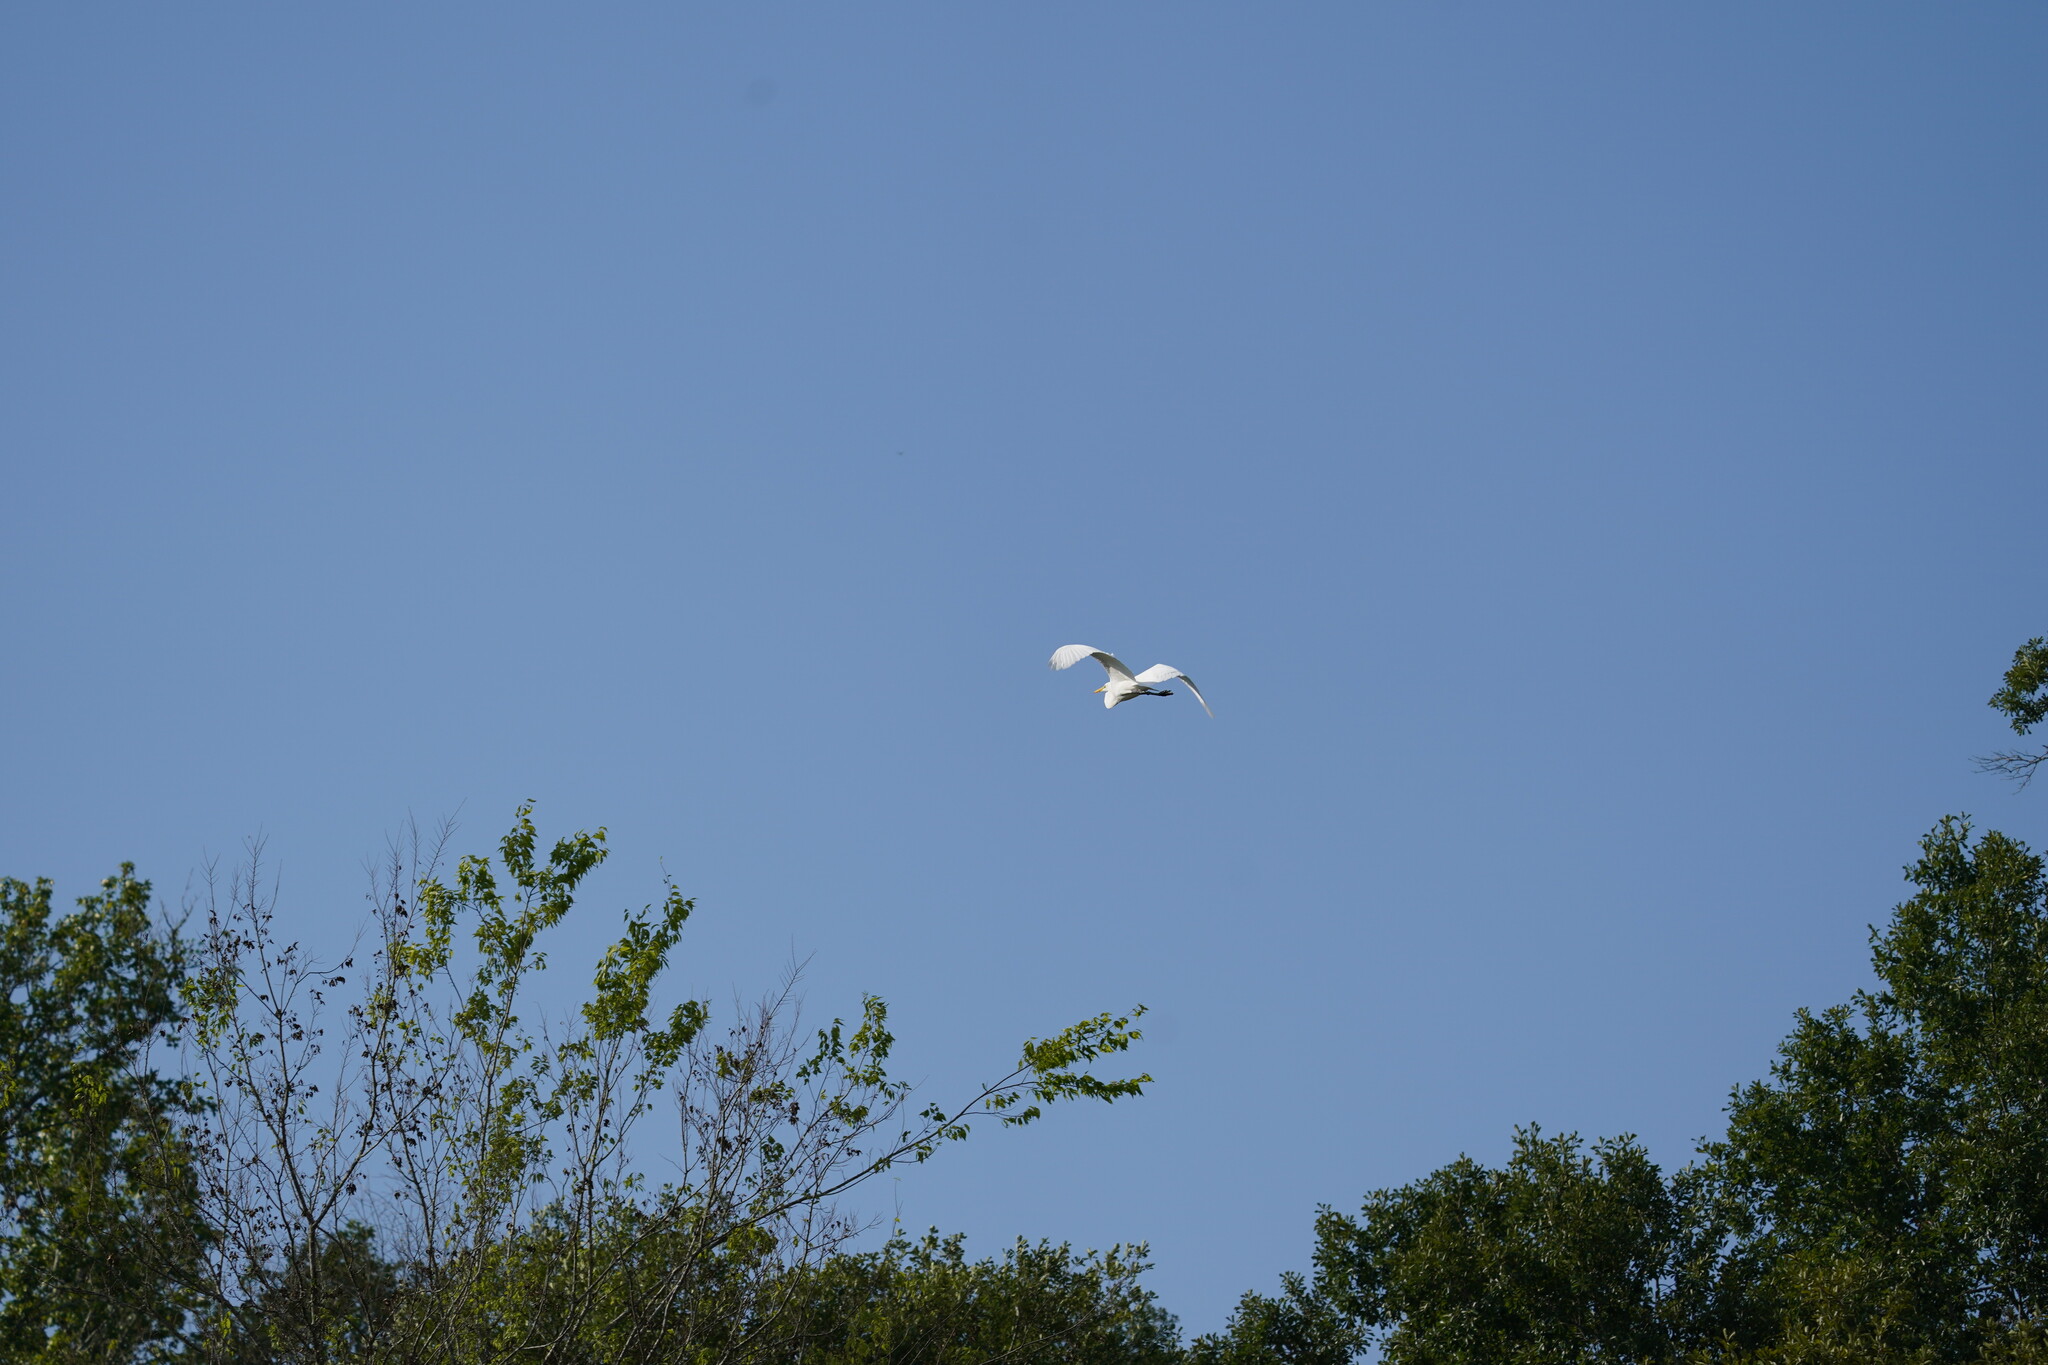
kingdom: Animalia
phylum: Chordata
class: Aves
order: Pelecaniformes
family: Ardeidae
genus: Ardea
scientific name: Ardea alba
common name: Great egret
